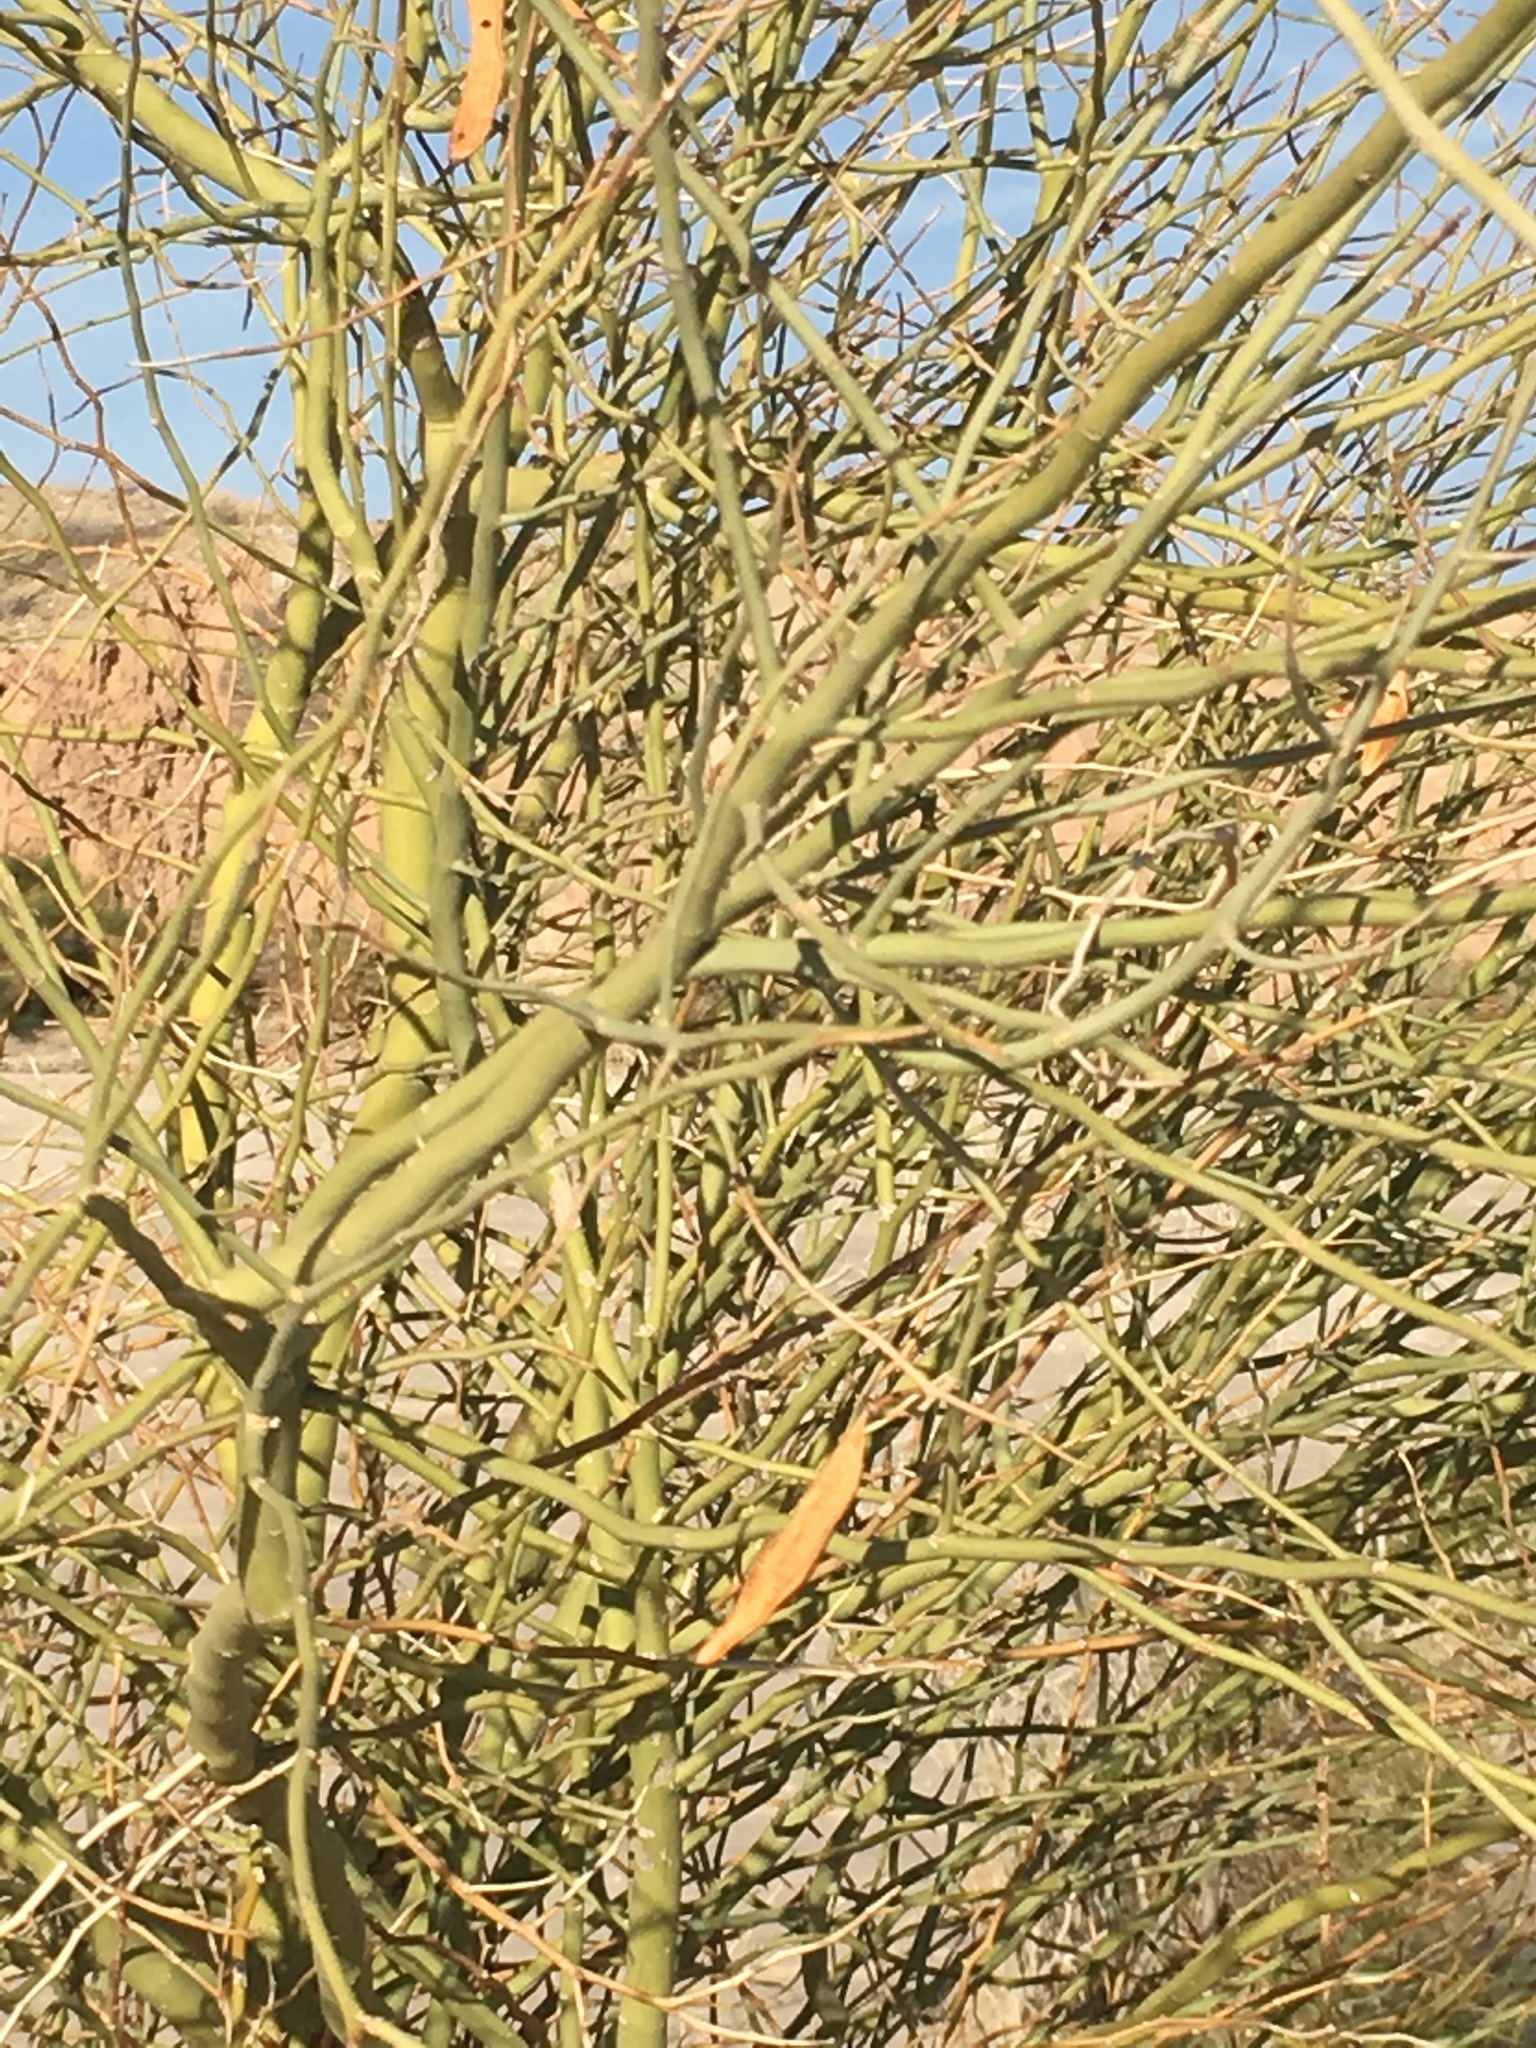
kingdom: Plantae
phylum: Tracheophyta
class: Magnoliopsida
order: Fabales
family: Fabaceae
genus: Parkinsonia
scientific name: Parkinsonia florida
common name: Blue paloverde
